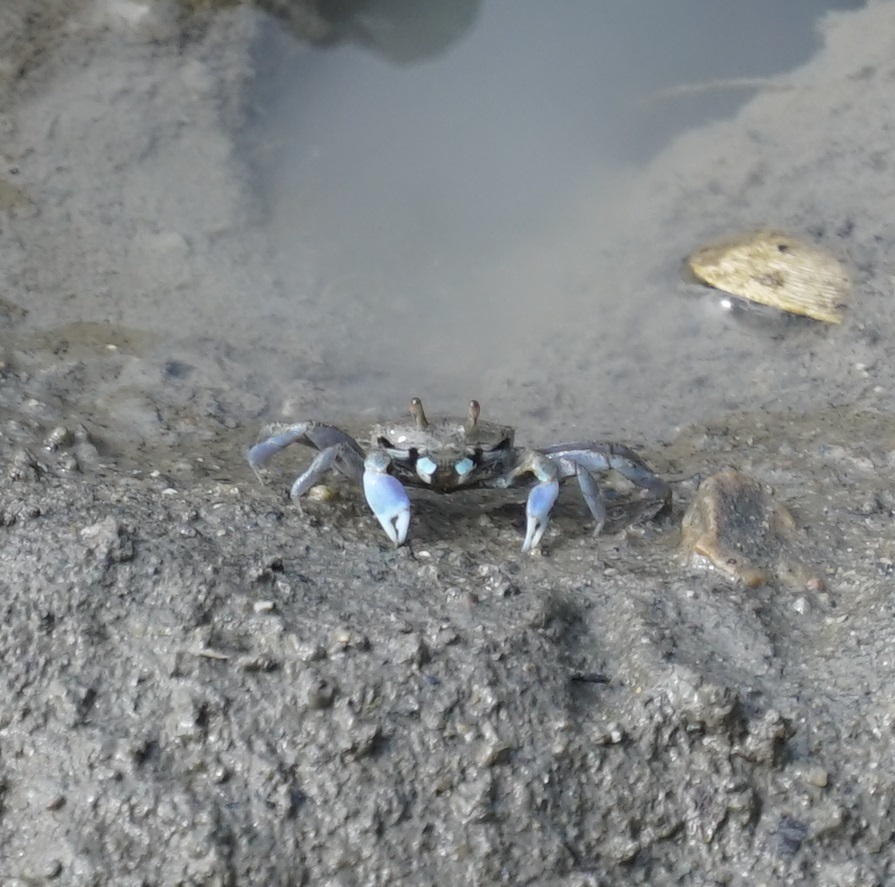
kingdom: Animalia
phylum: Arthropoda
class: Malacostraca
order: Decapoda
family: Macrophthalmidae
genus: Macrophthalmus
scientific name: Macrophthalmus pacificus
